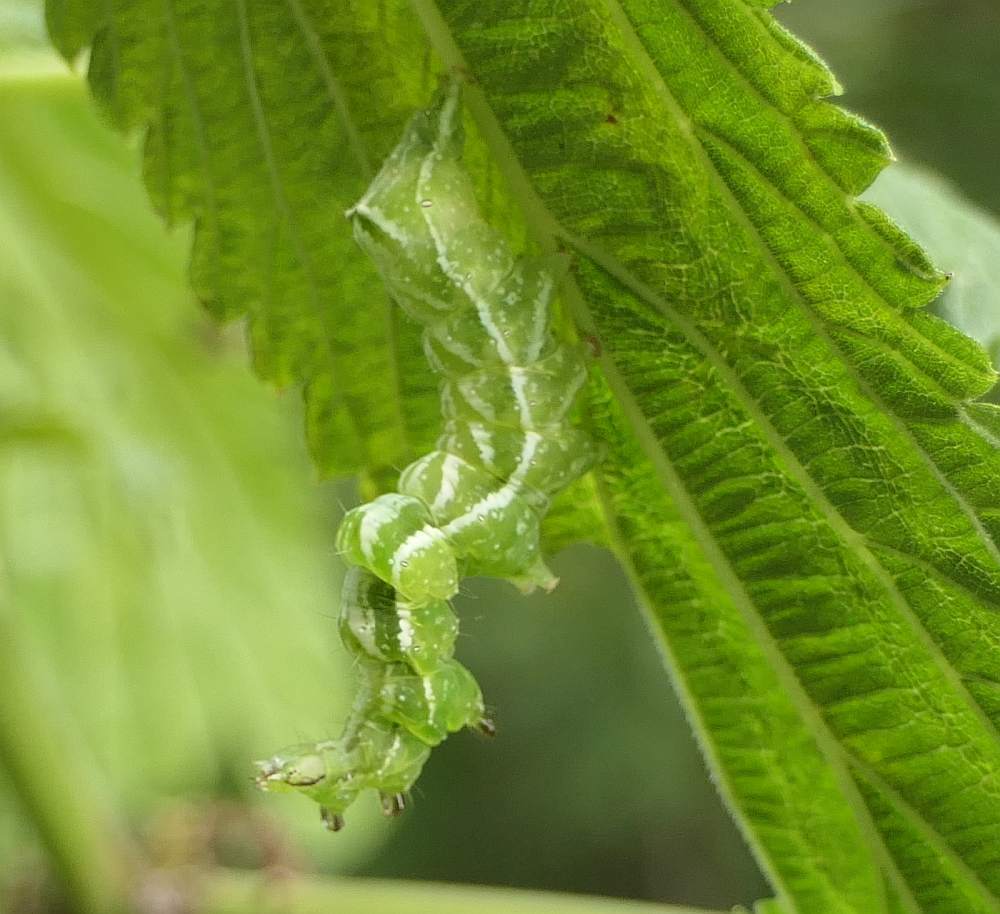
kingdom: Animalia
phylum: Arthropoda
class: Insecta
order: Lepidoptera
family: Noctuidae
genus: Abrostola
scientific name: Abrostola urentis
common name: Spectacled nettle moth
